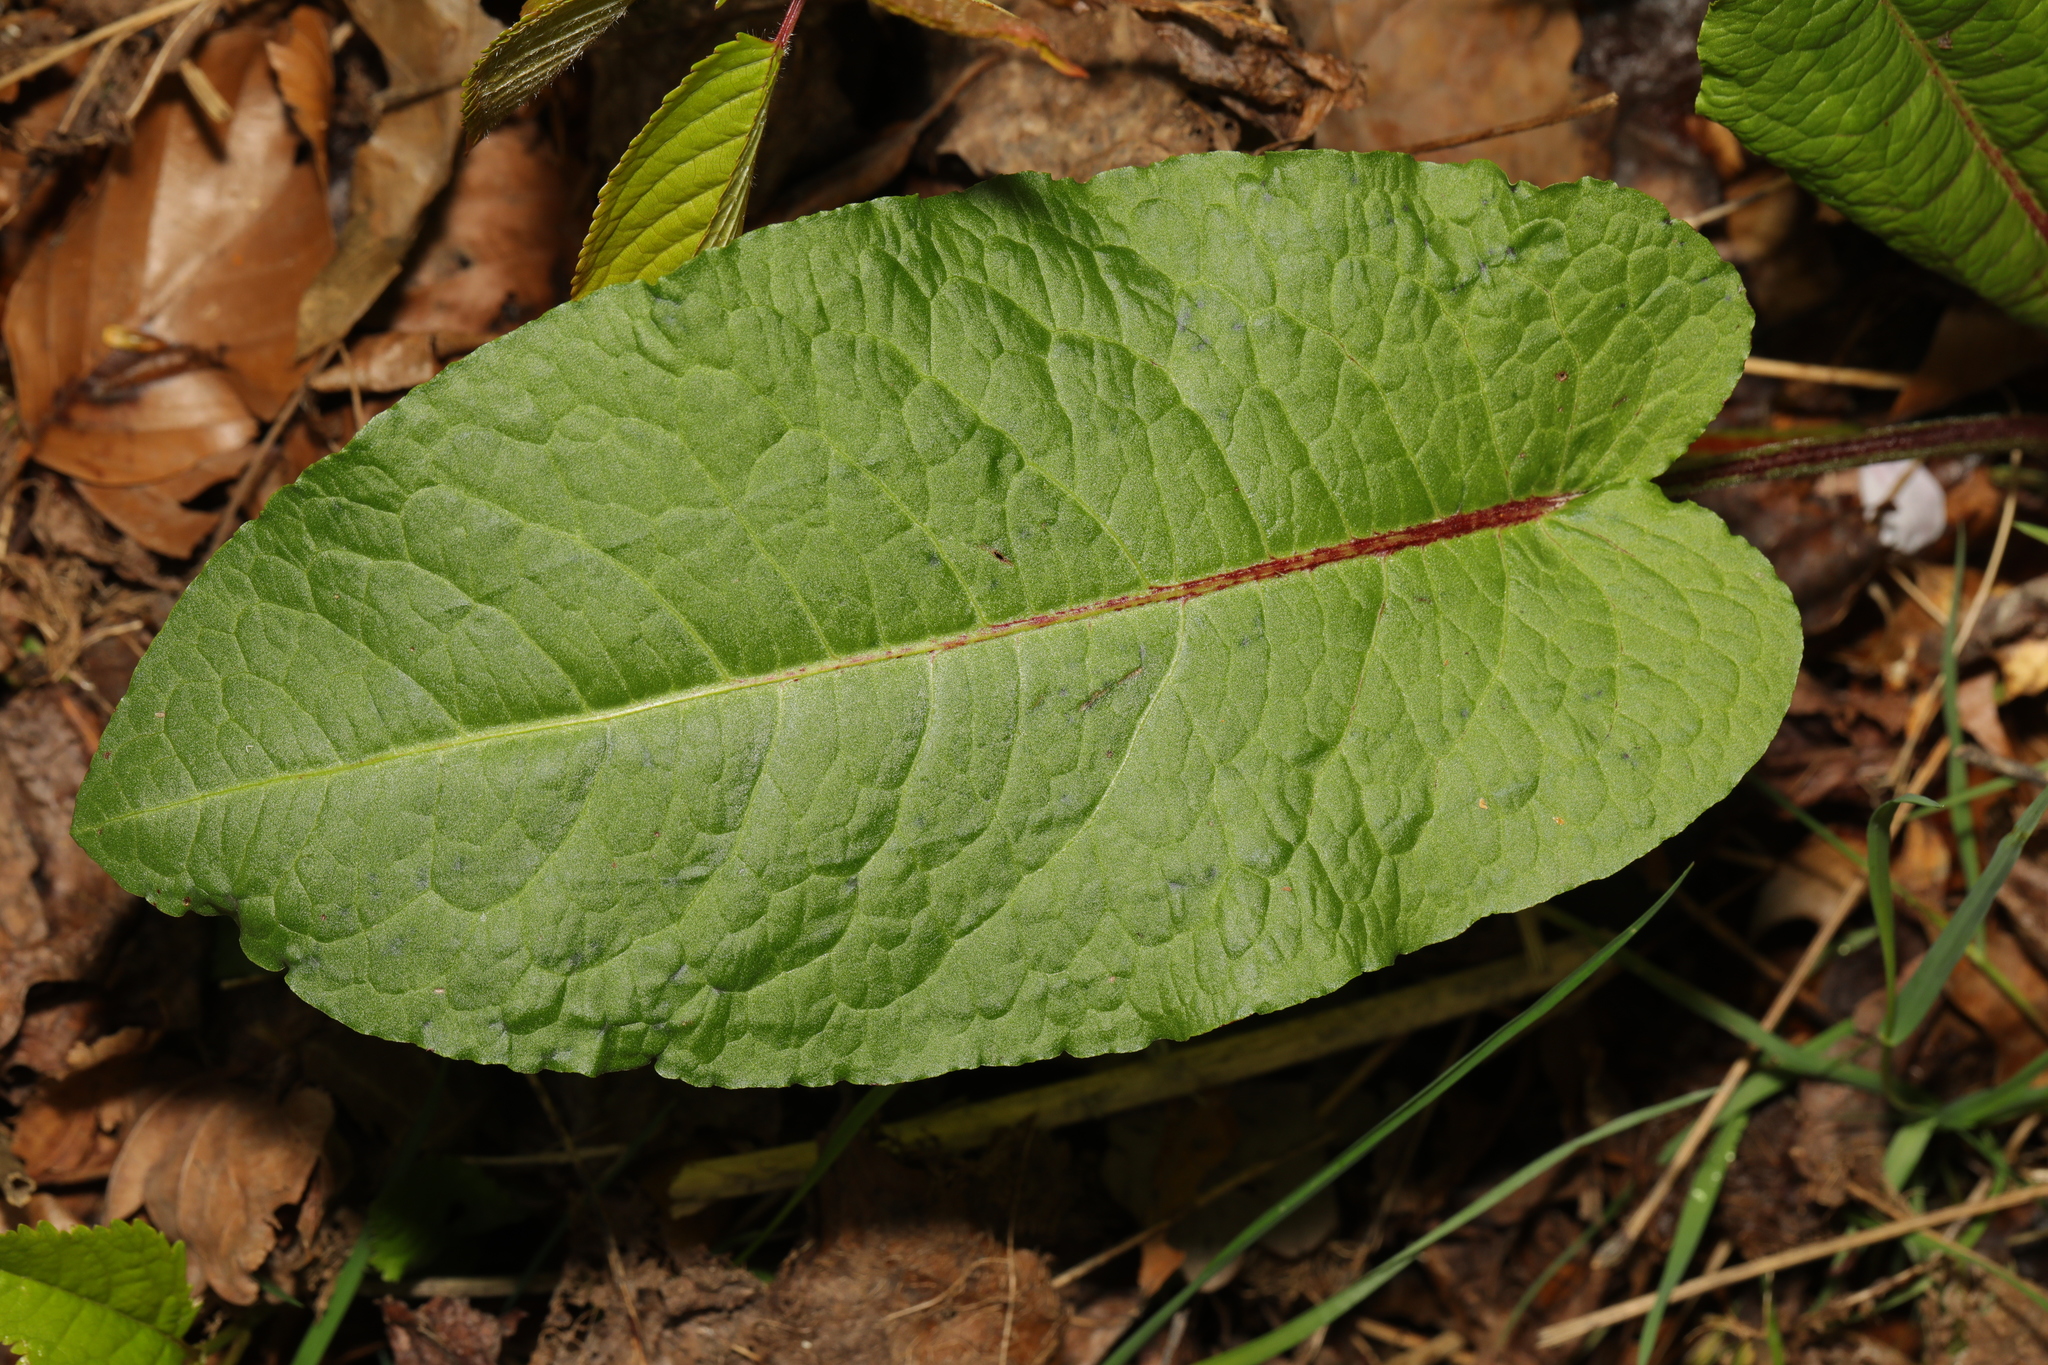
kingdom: Plantae
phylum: Tracheophyta
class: Magnoliopsida
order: Caryophyllales
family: Polygonaceae
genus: Rumex
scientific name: Rumex obtusifolius
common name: Bitter dock
